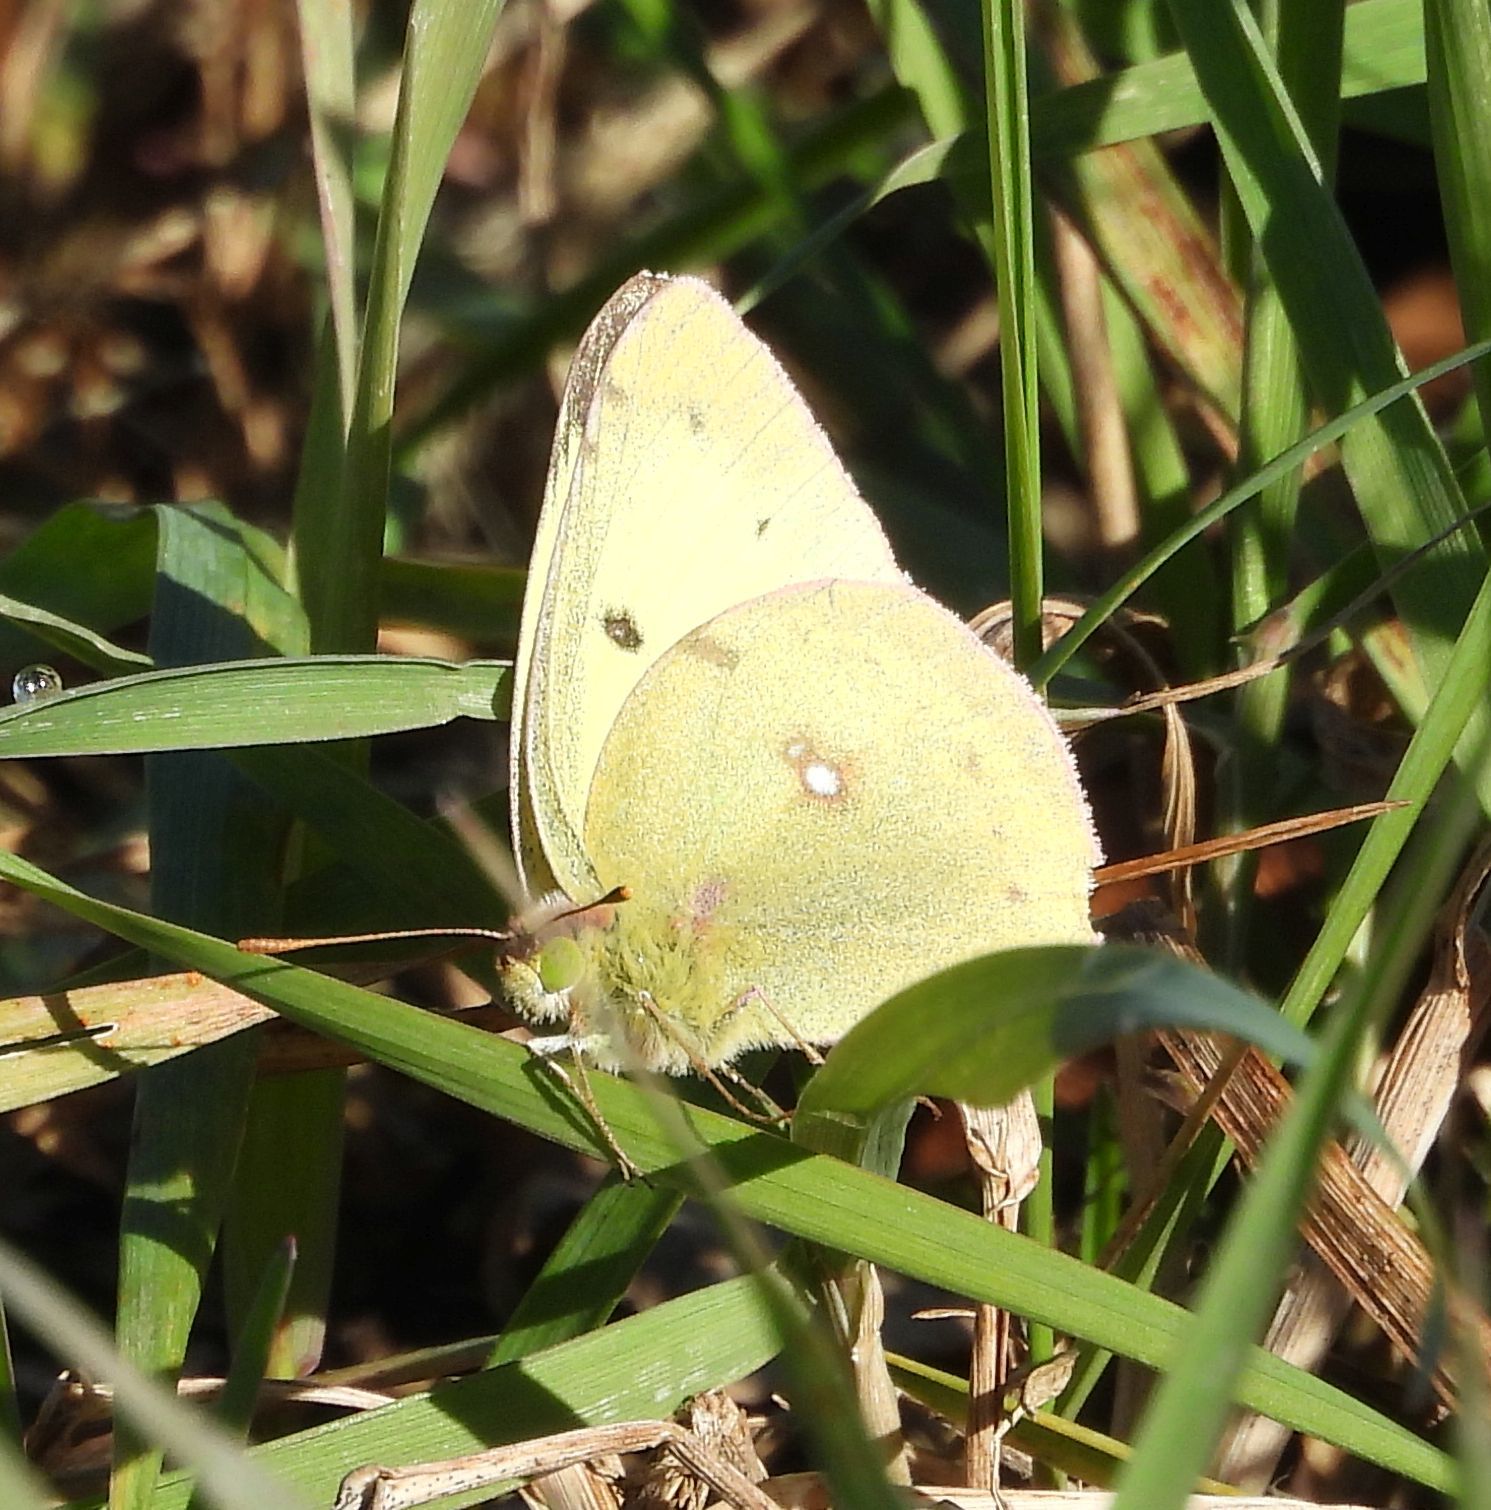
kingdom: Animalia
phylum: Arthropoda
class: Insecta
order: Lepidoptera
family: Pieridae
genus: Colias
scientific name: Colias philodice
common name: Clouded sulphur
